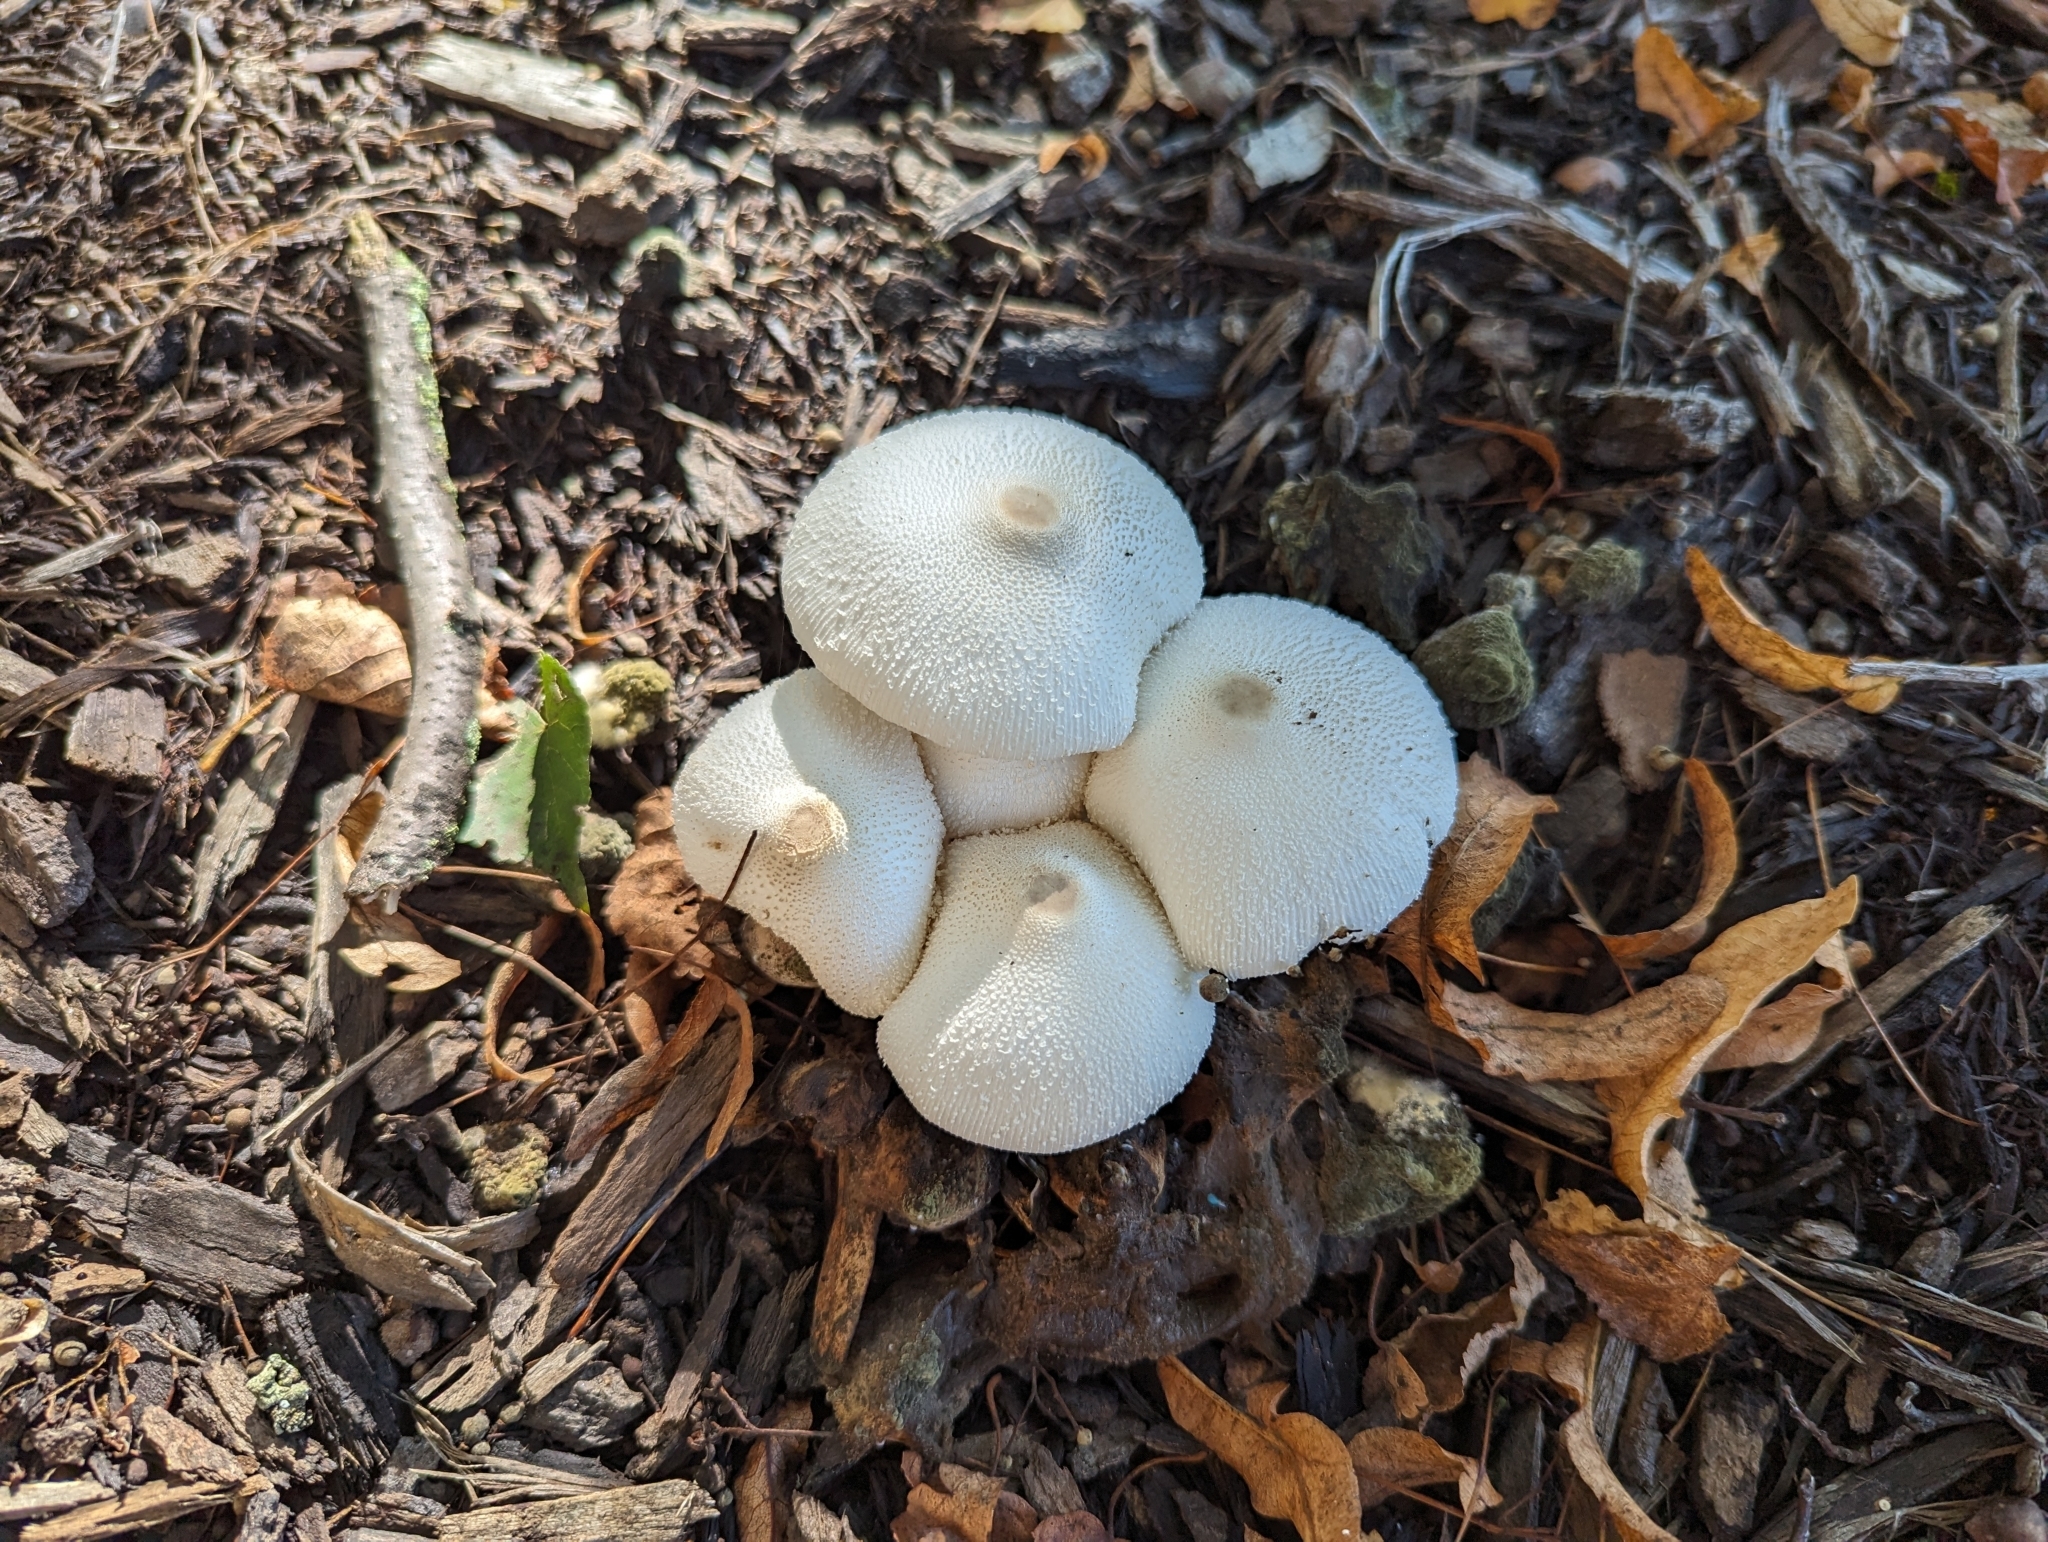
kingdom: Fungi
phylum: Basidiomycota
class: Agaricomycetes
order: Agaricales
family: Agaricaceae
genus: Leucocoprinus
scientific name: Leucocoprinus cepistipes
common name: Onion-stalk parasol
